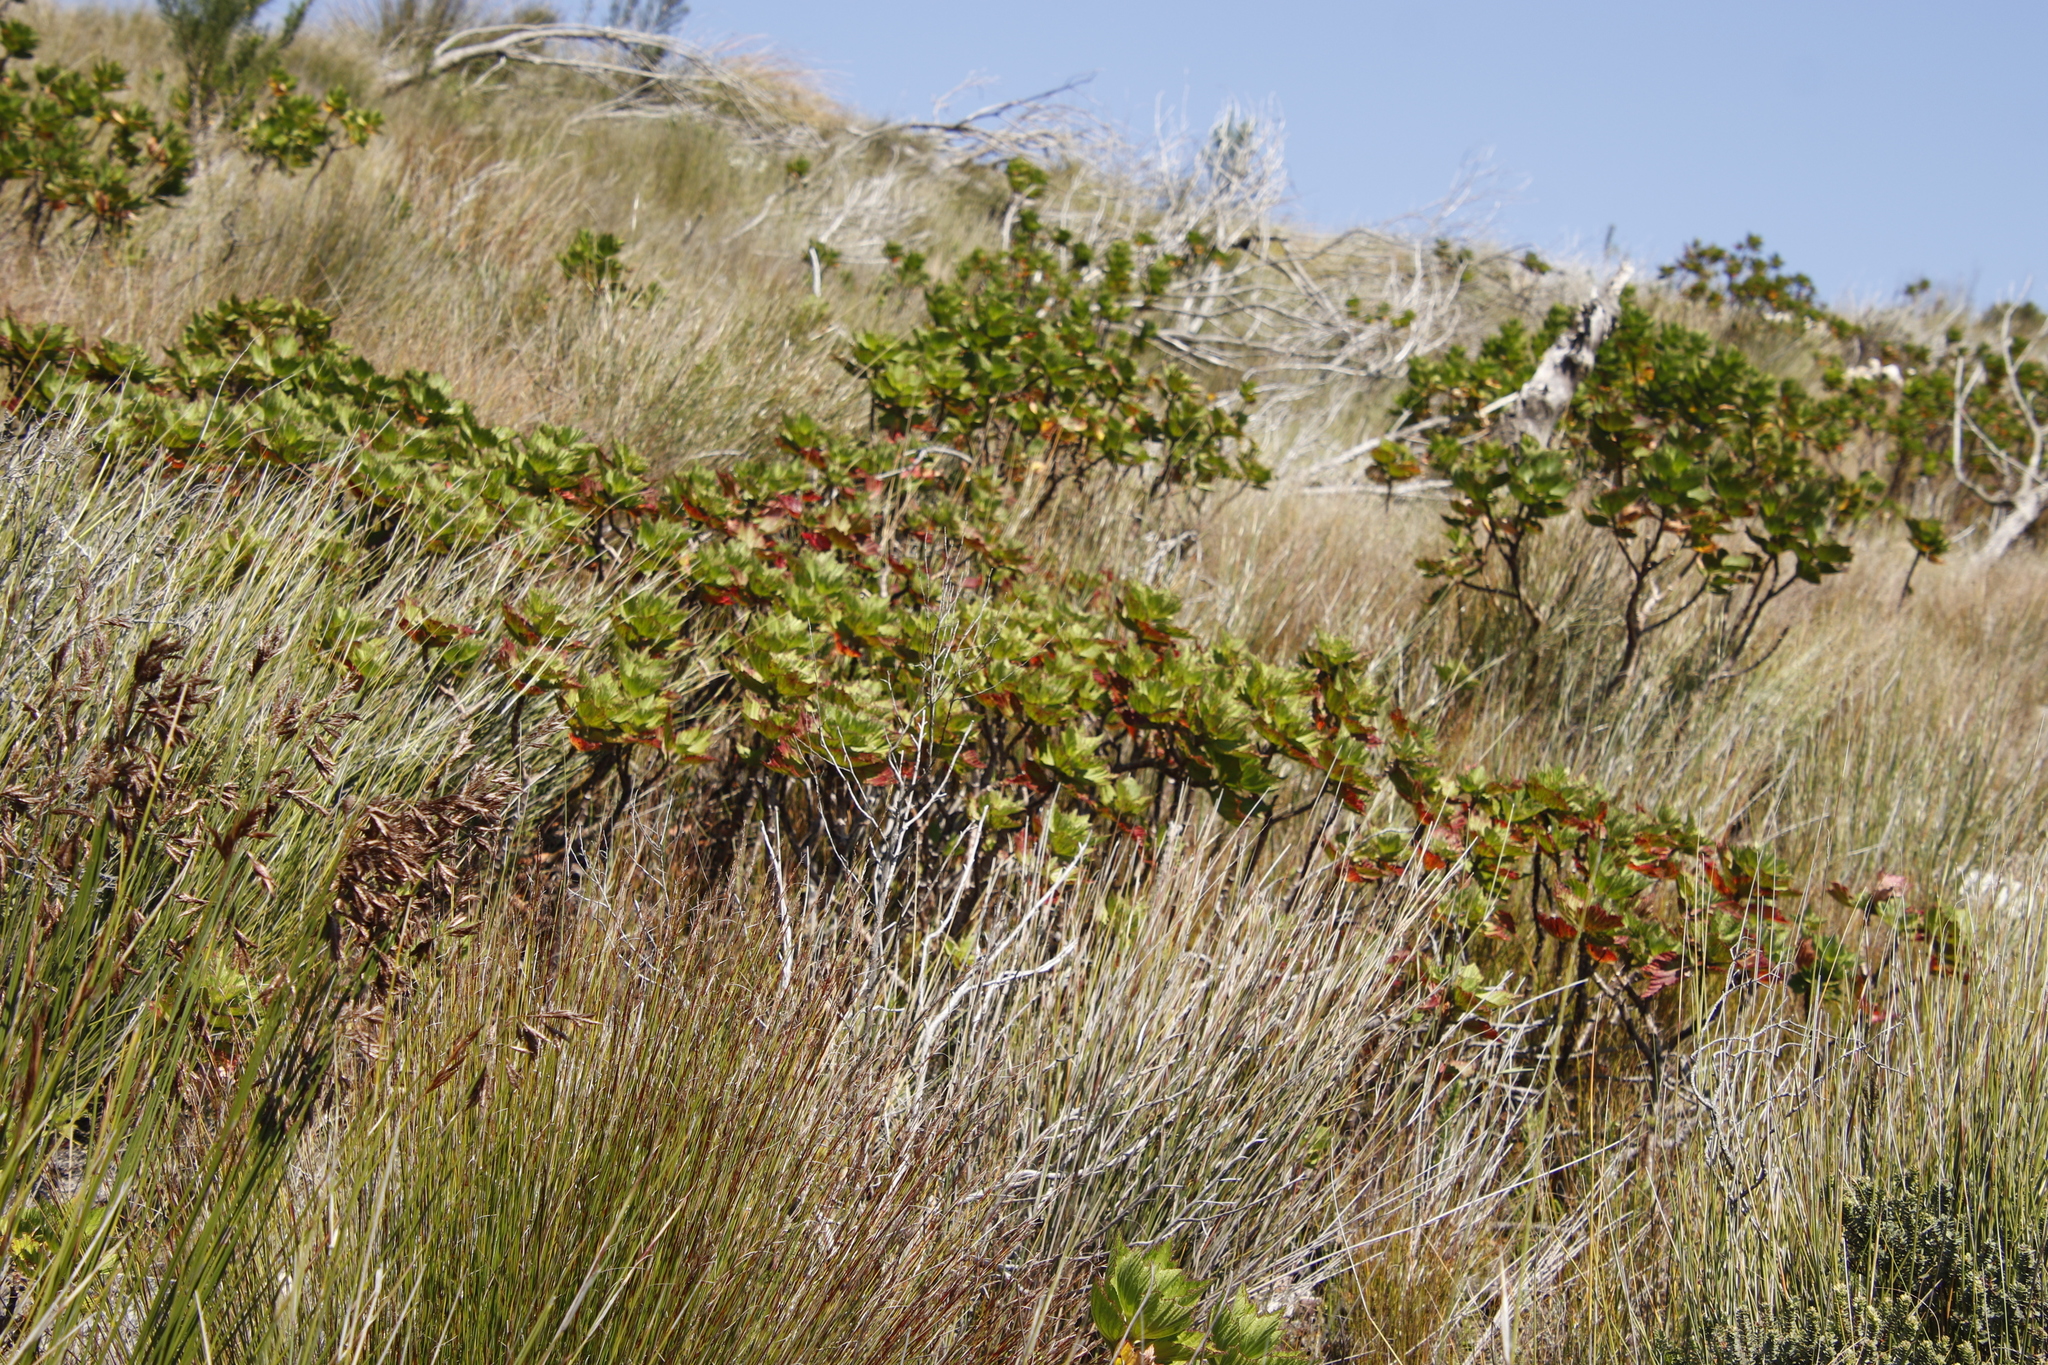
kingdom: Plantae
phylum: Tracheophyta
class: Magnoliopsida
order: Geraniales
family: Geraniaceae
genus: Pelargonium
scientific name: Pelargonium cucullatum
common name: Tree pelargonium
